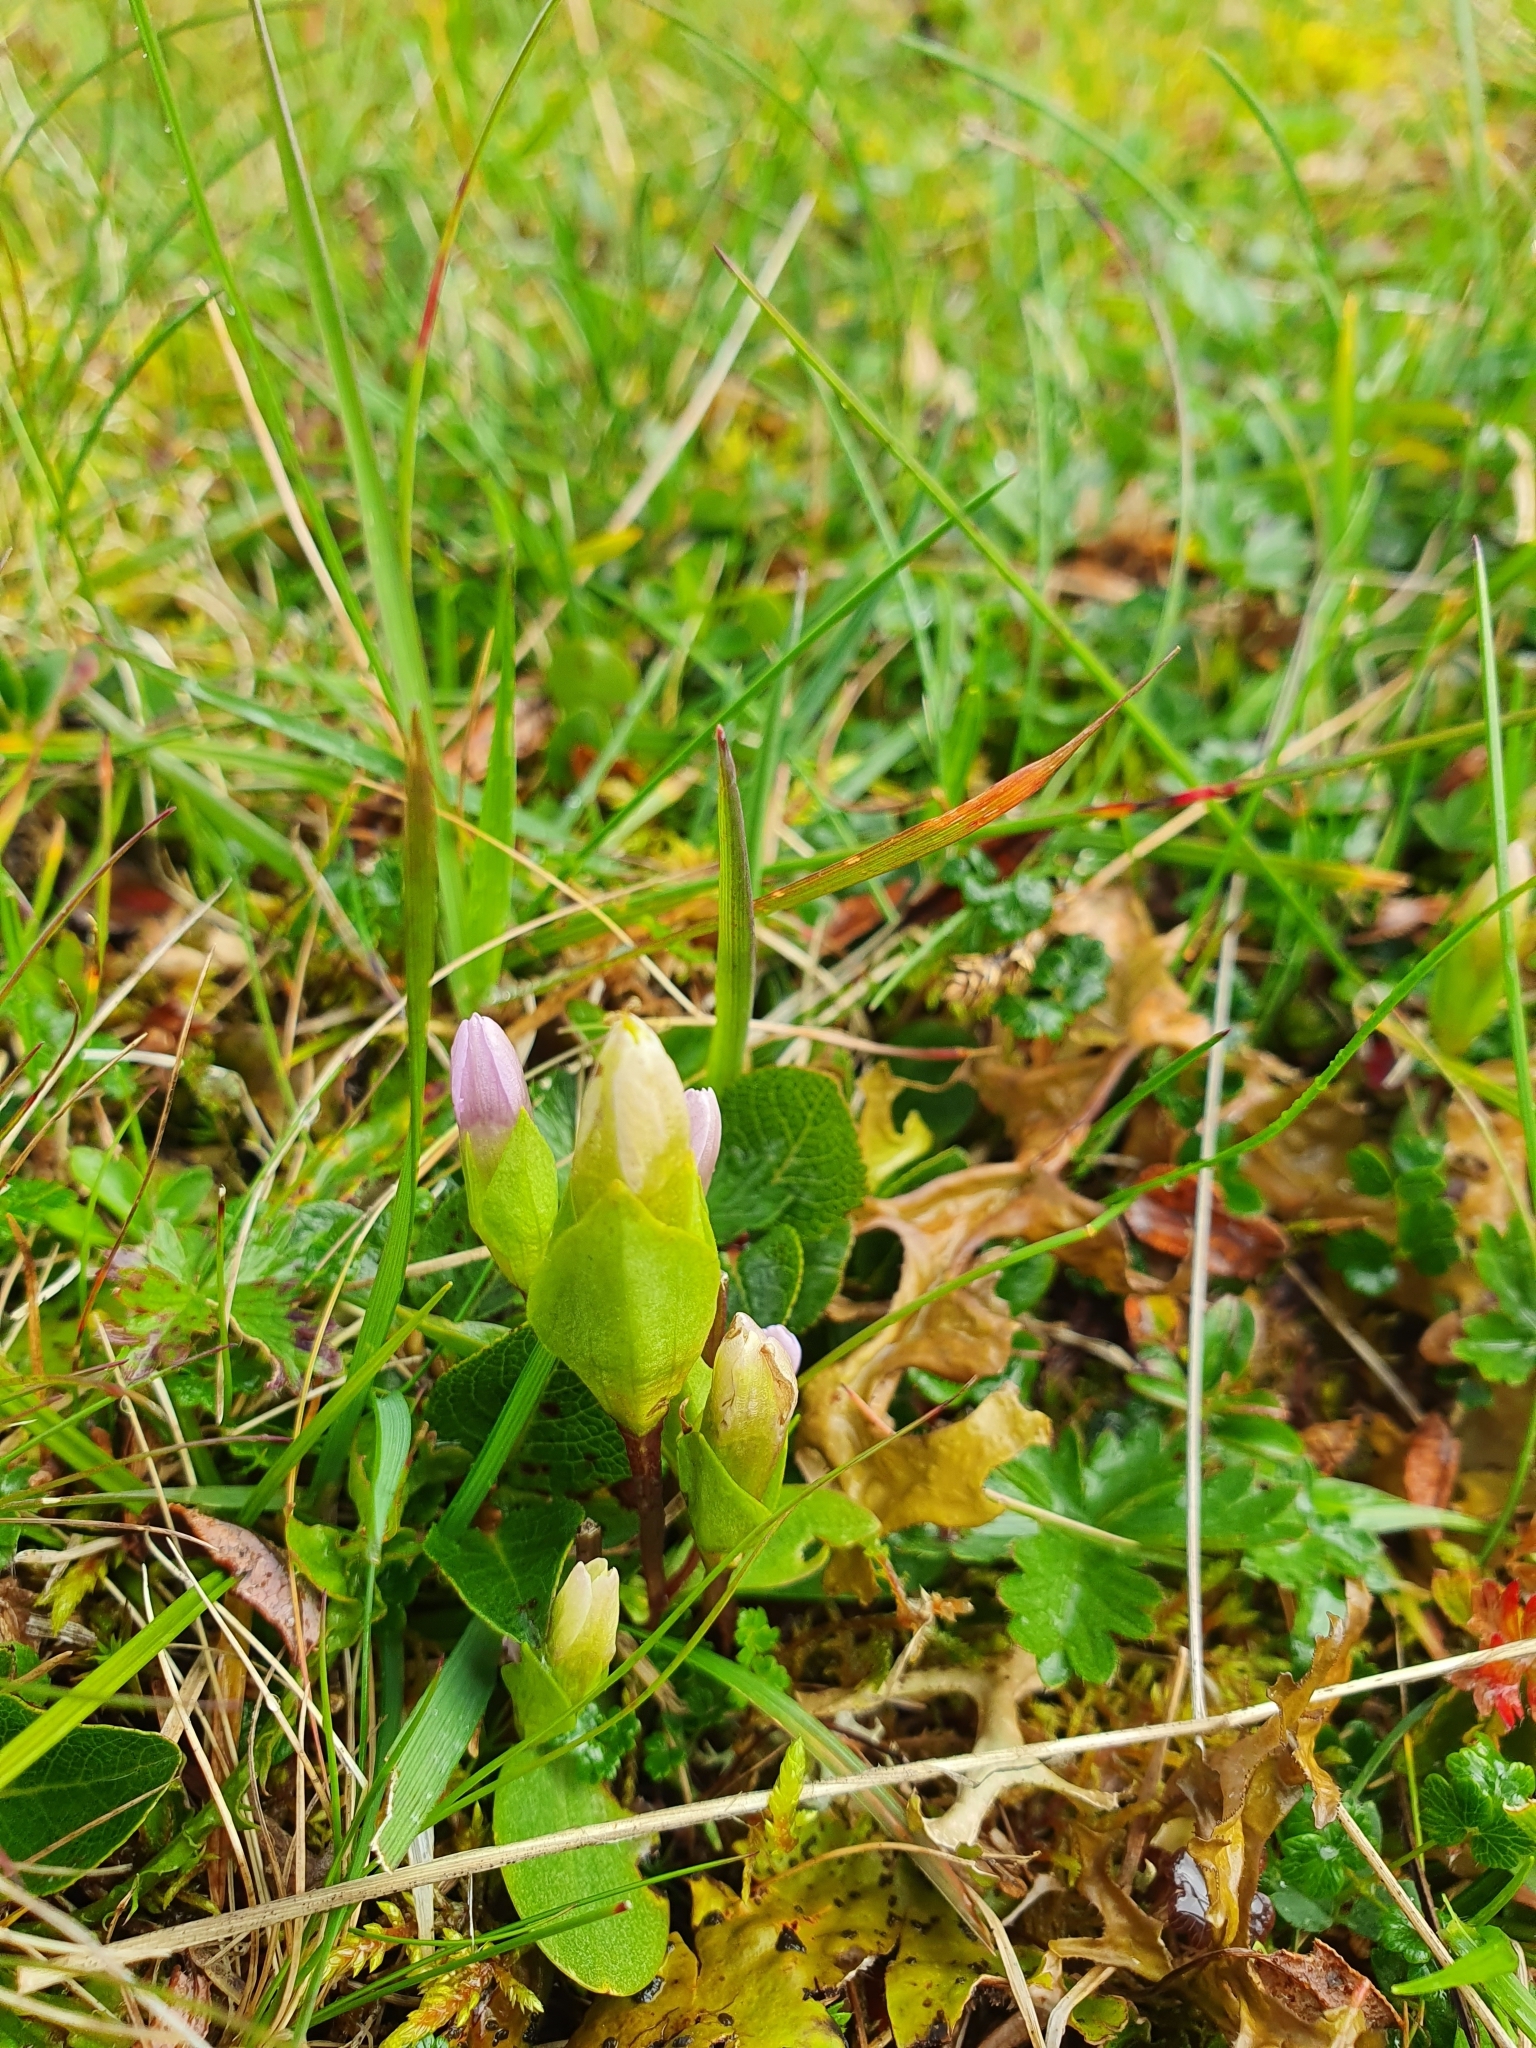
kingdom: Plantae
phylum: Tracheophyta
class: Magnoliopsida
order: Gentianales
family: Gentianaceae
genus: Gentianella
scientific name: Gentianella campestris
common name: Field gentian
